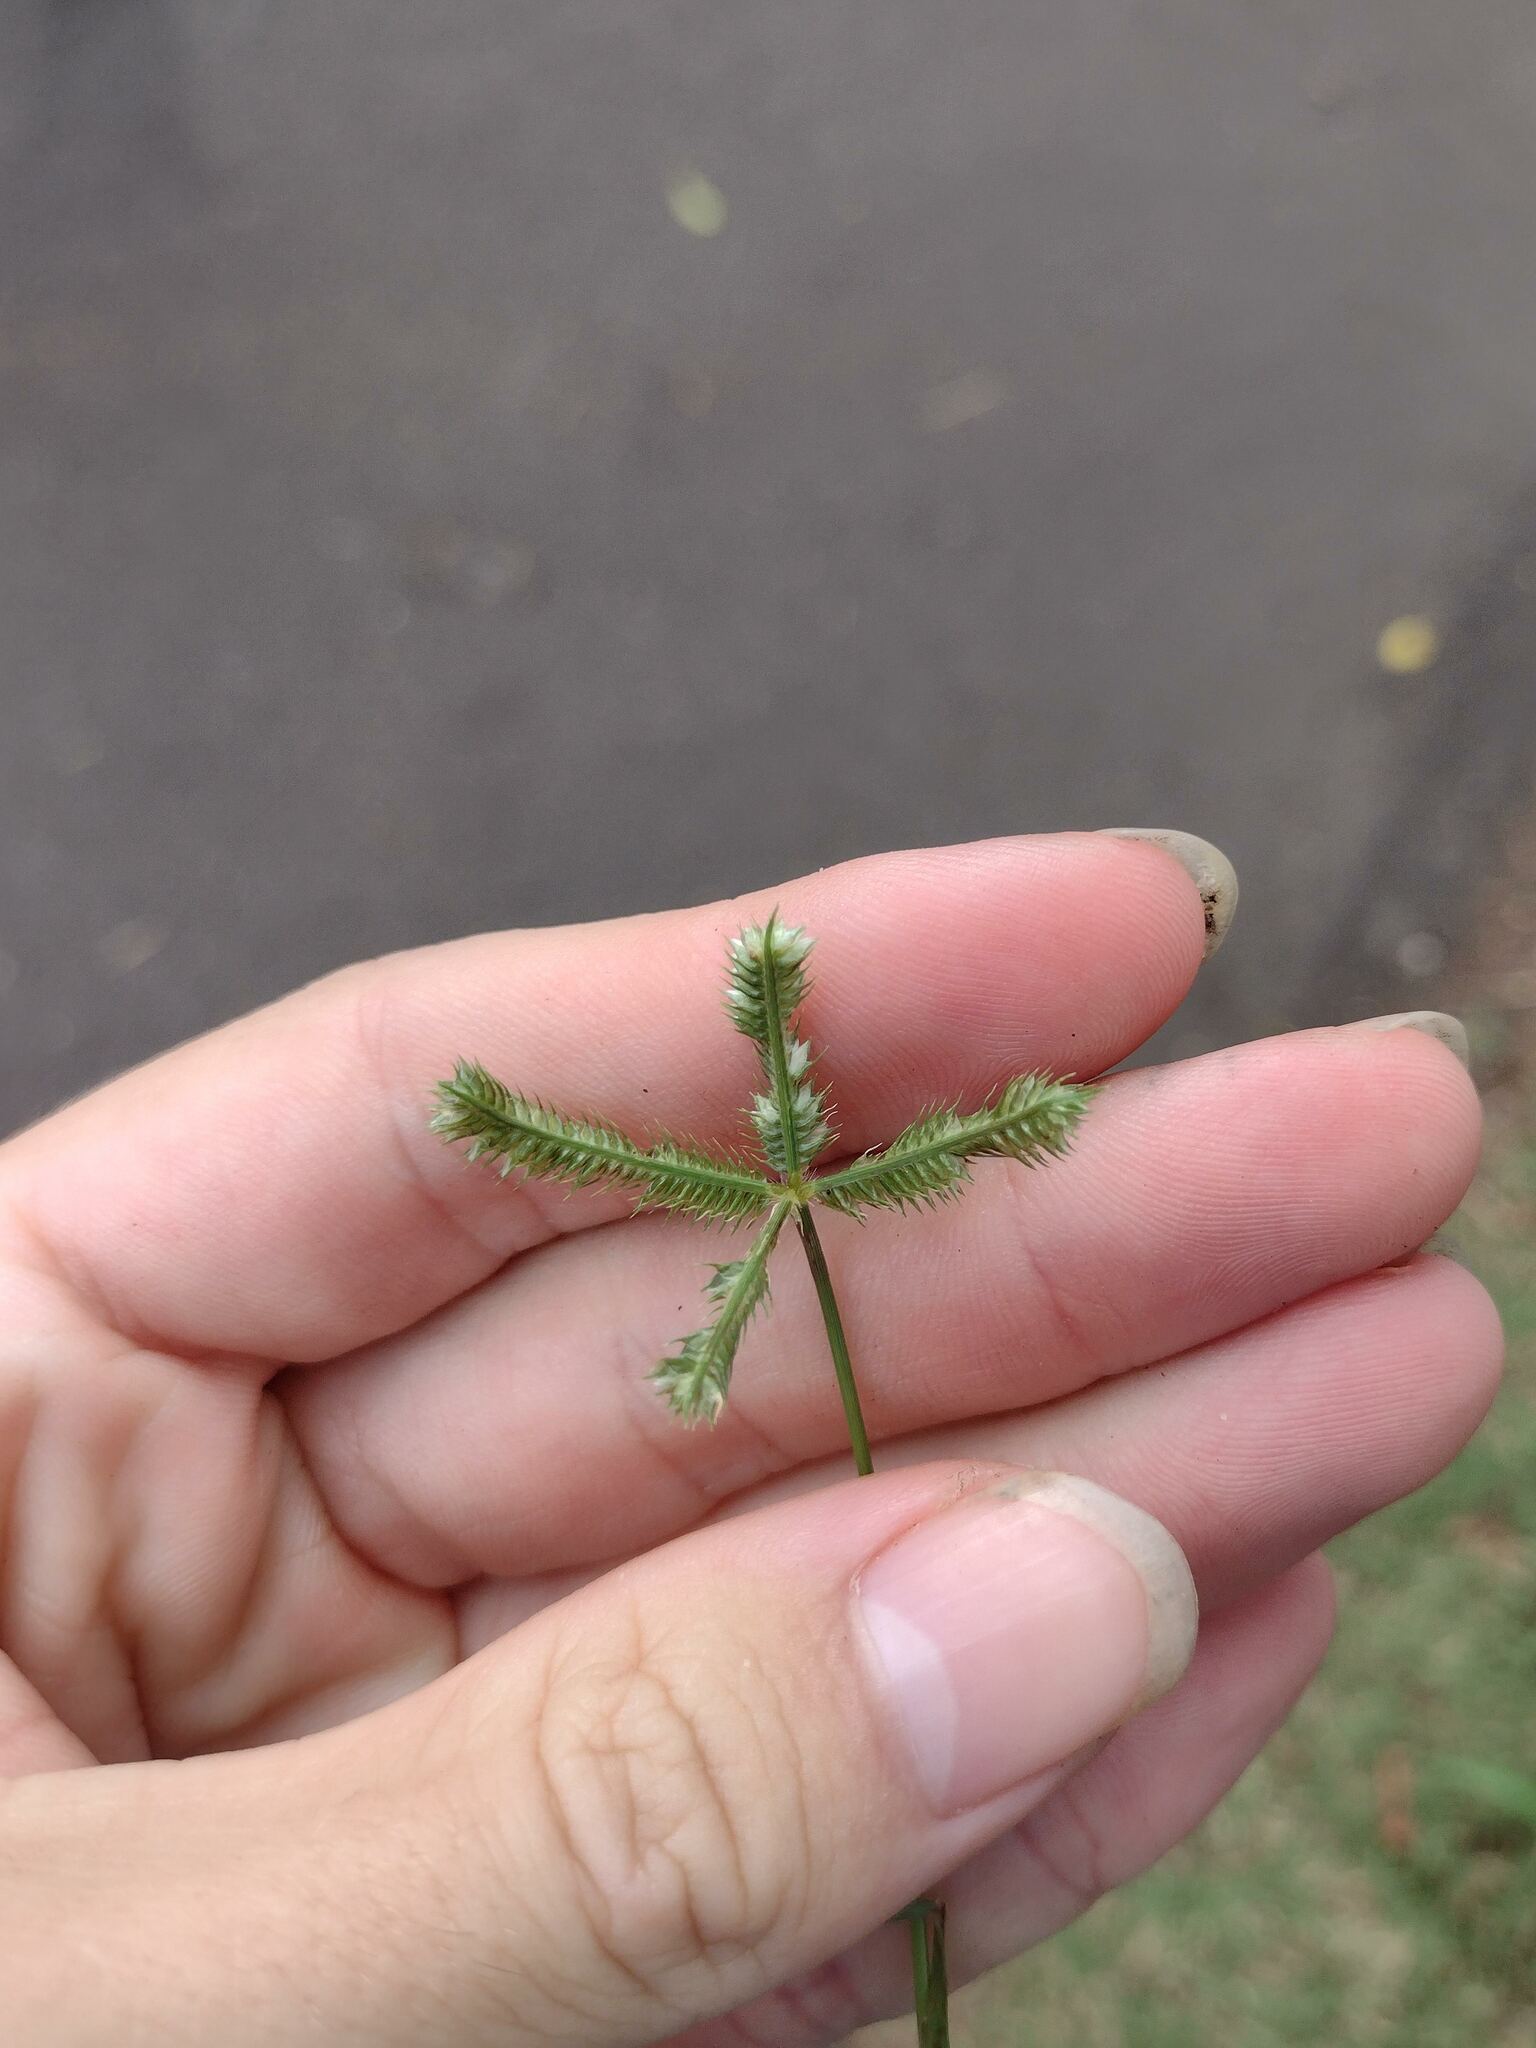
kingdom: Plantae
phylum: Tracheophyta
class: Liliopsida
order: Poales
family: Poaceae
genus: Dactyloctenium
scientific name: Dactyloctenium aegyptium
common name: Egyptian grass
